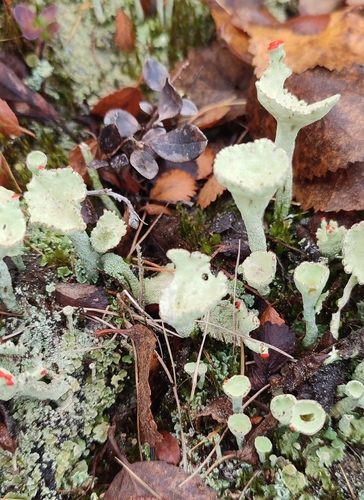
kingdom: Fungi
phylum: Ascomycota
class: Lecanoromycetes
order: Lecanorales
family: Cladoniaceae
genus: Cladonia
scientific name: Cladonia deformis
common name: Lesser sulphur-cup lichen
